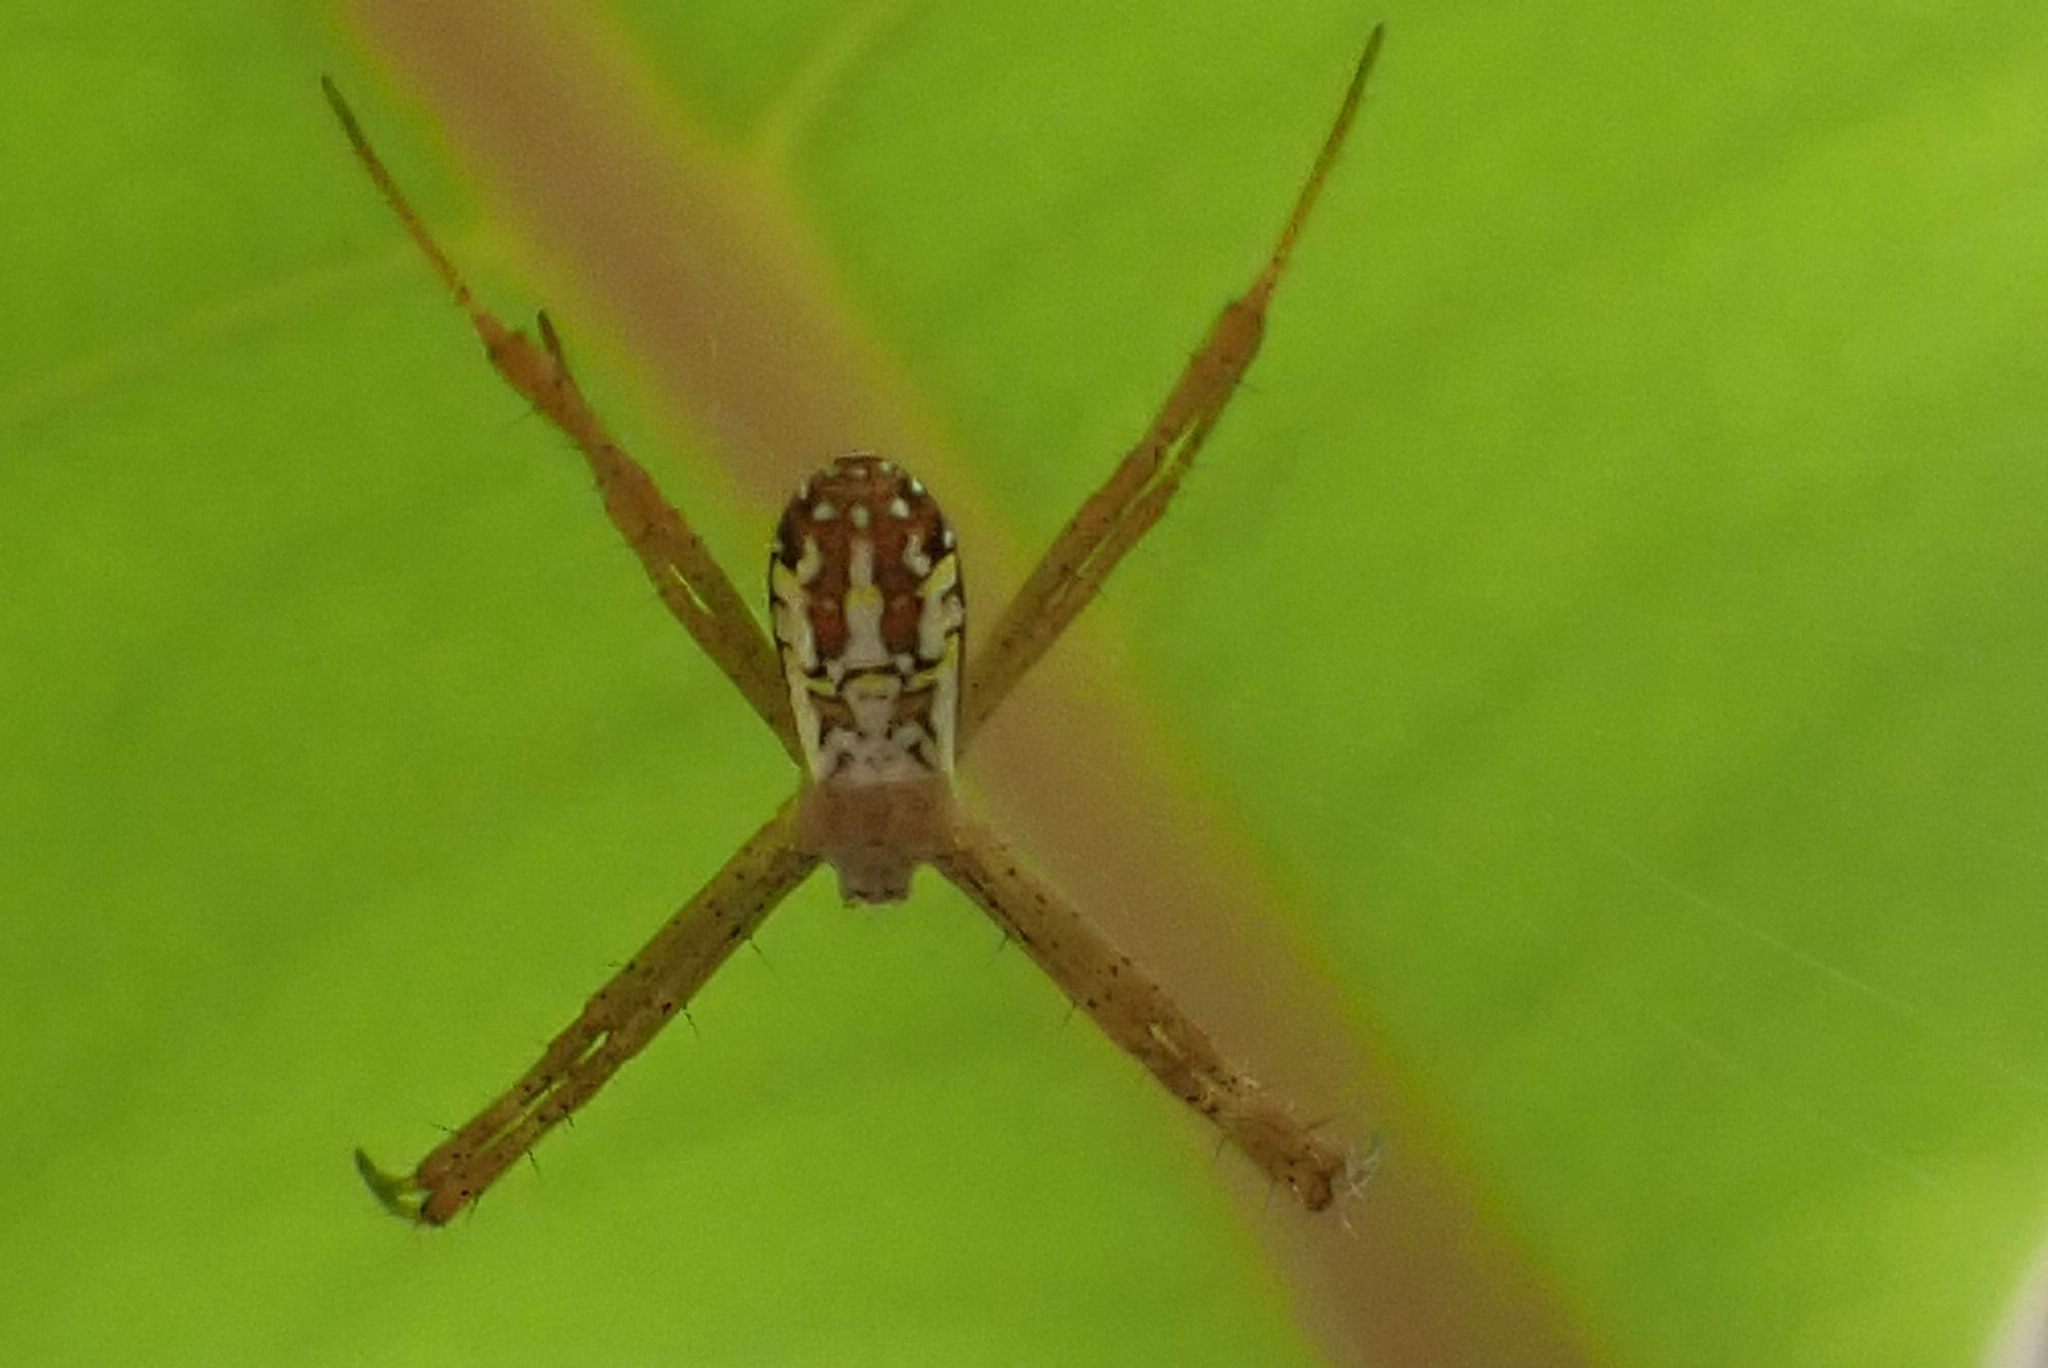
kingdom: Animalia
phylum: Arthropoda
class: Arachnida
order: Araneae
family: Araneidae
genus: Argiope
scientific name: Argiope dang
